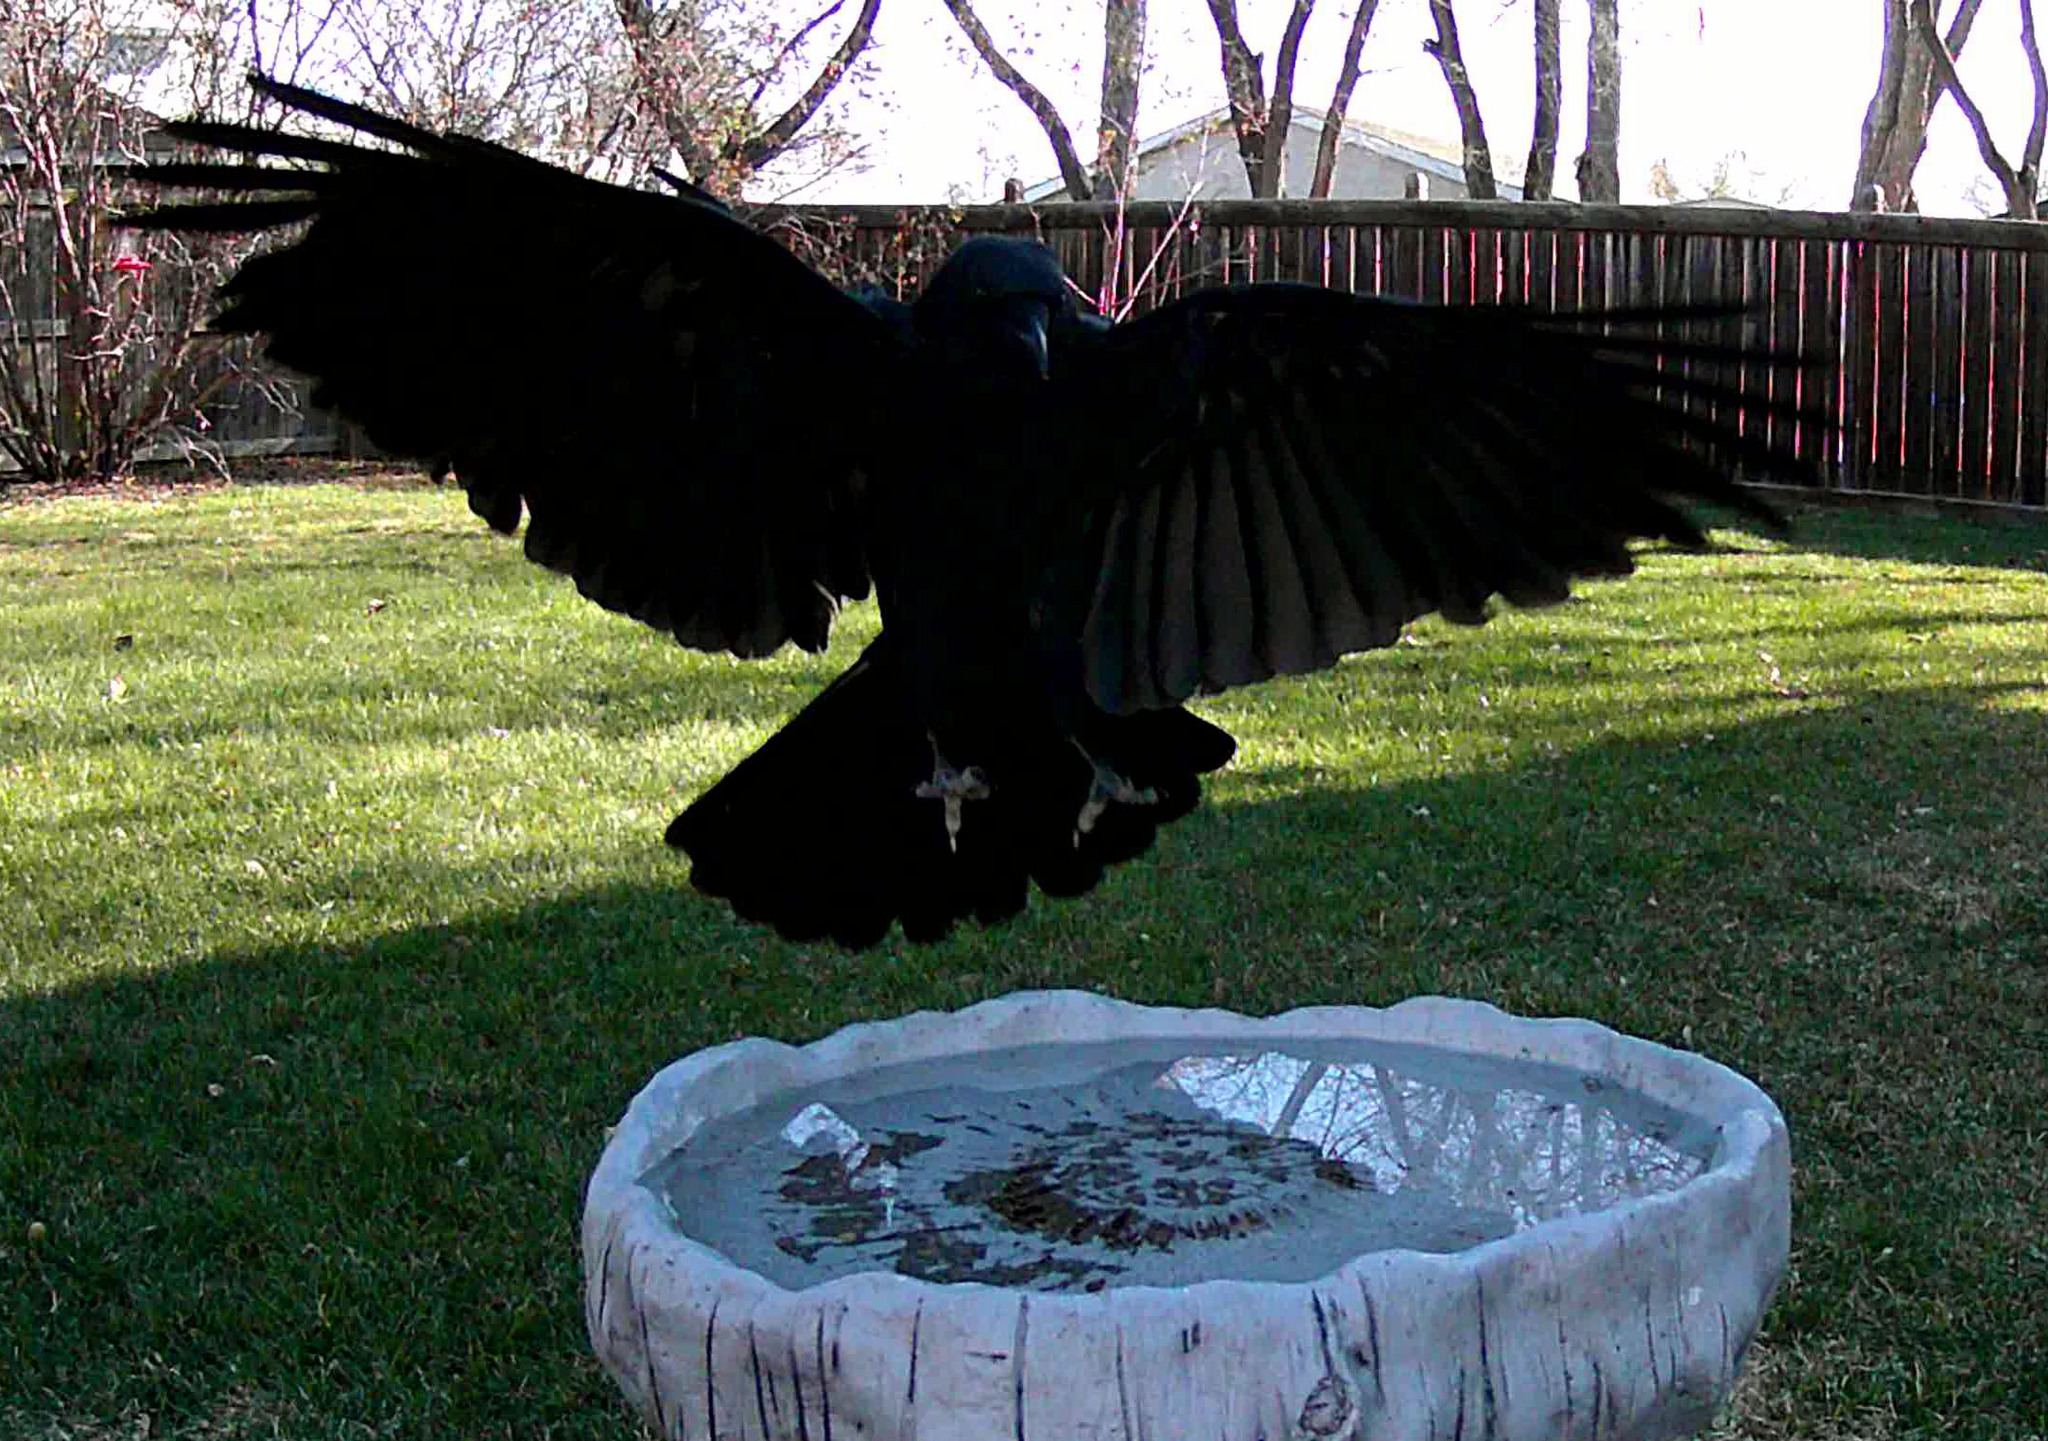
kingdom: Animalia
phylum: Chordata
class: Aves
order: Passeriformes
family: Corvidae
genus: Corvus
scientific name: Corvus brachyrhynchos
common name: American crow
